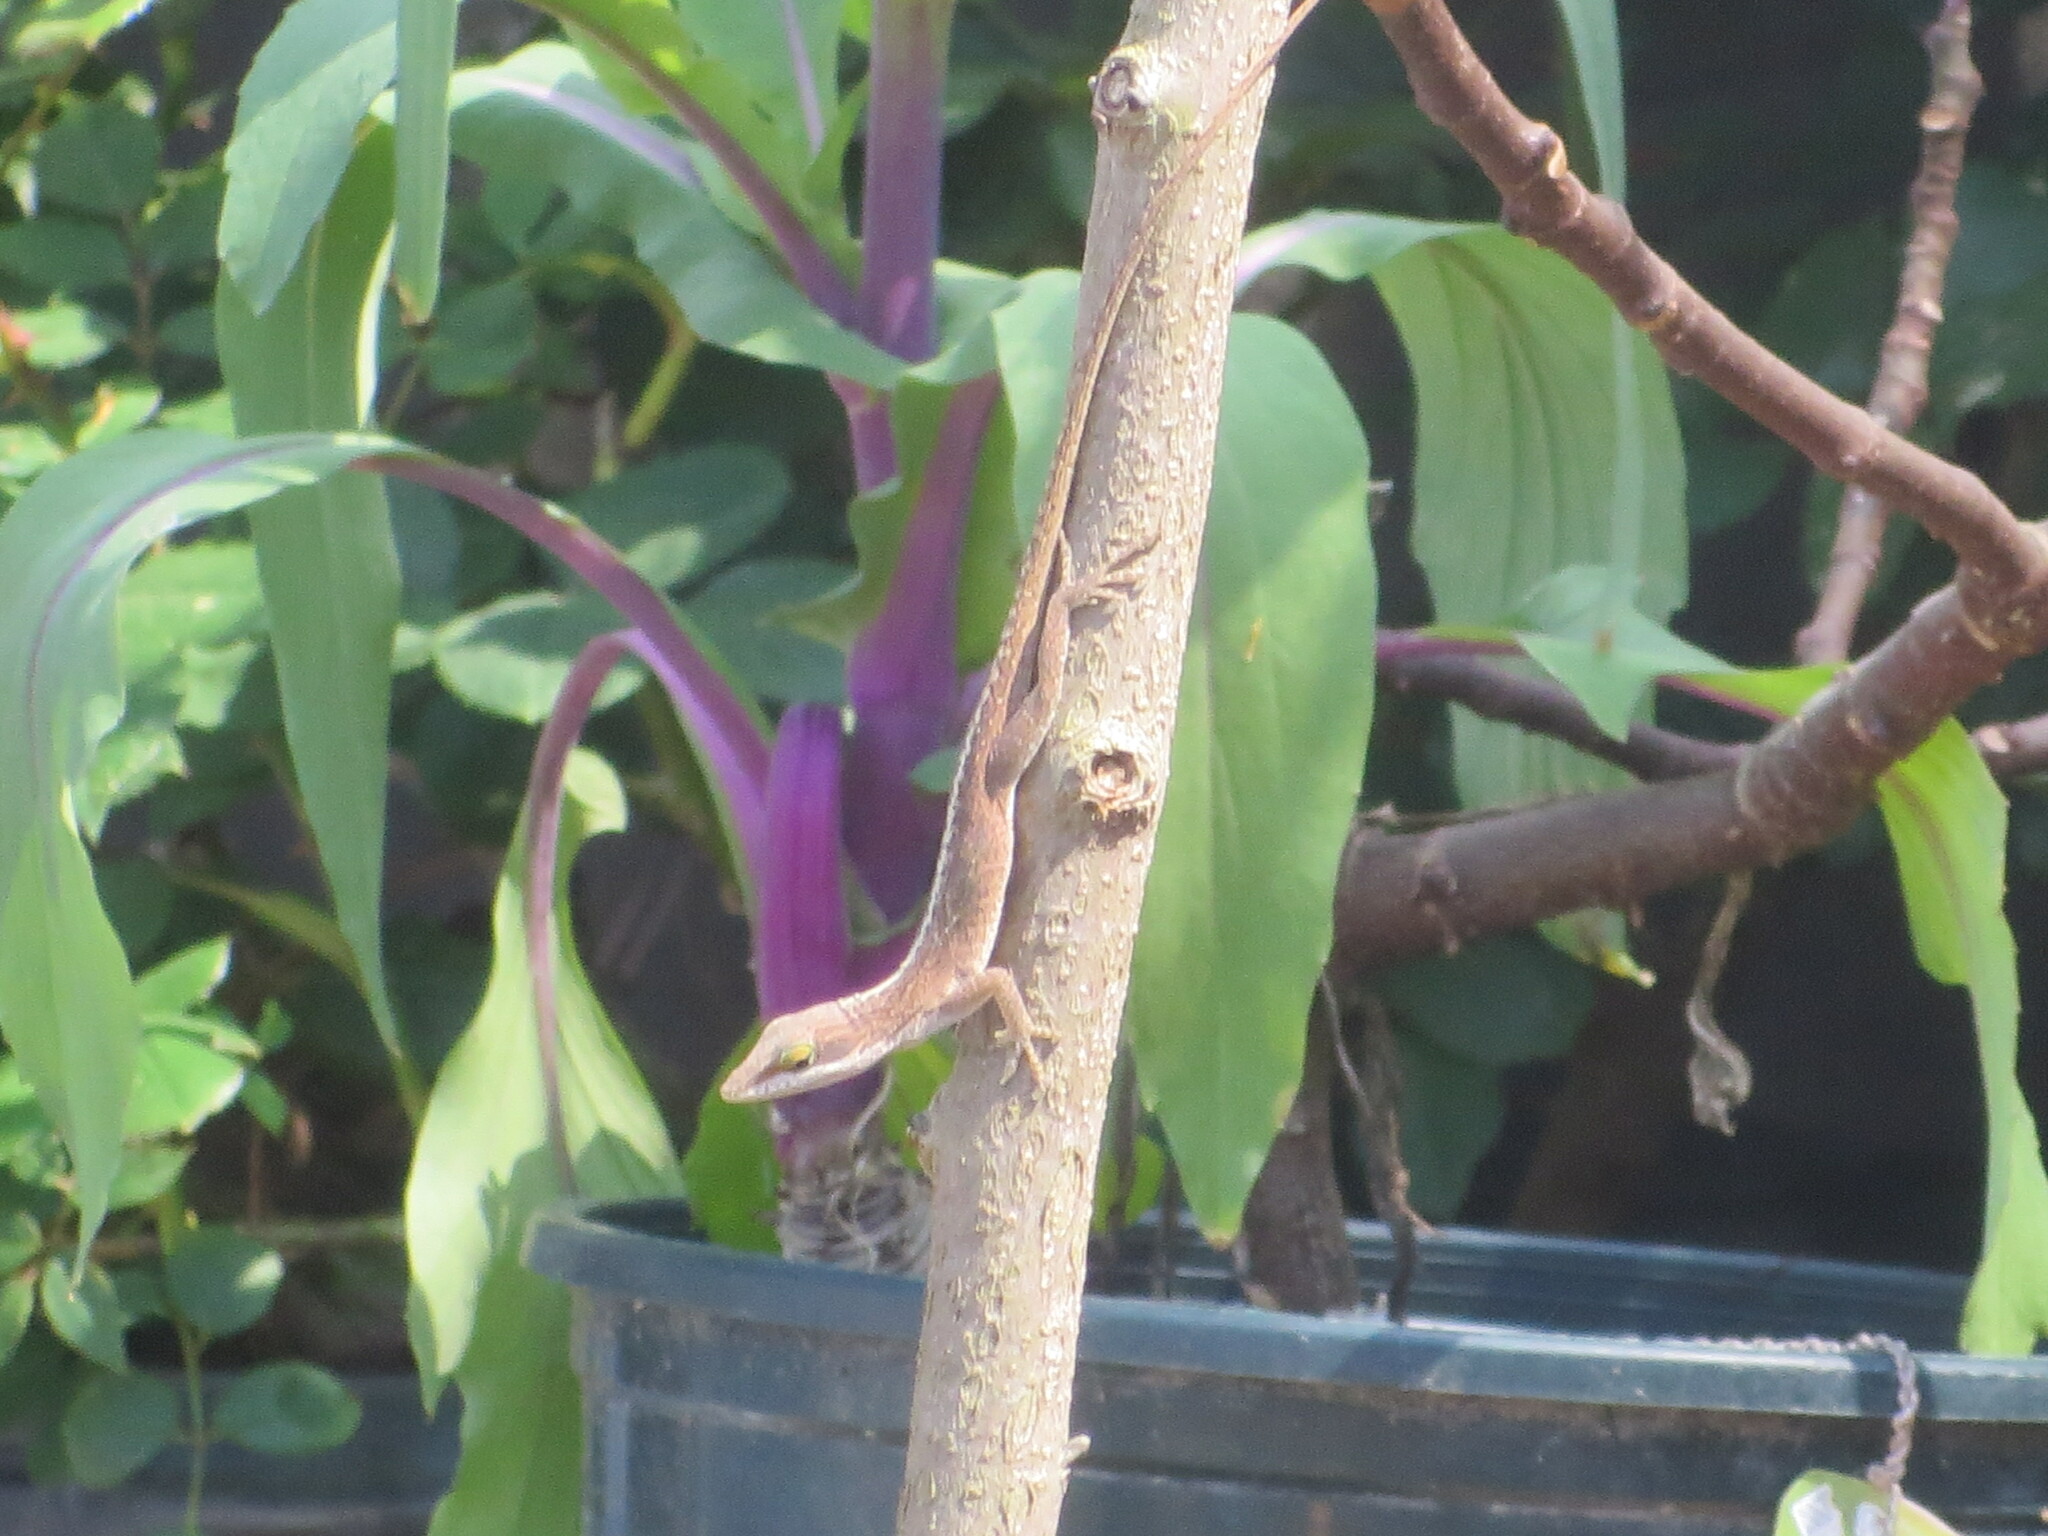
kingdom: Animalia
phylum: Chordata
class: Squamata
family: Dactyloidae
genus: Anolis
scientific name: Anolis carolinensis
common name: Green anole
